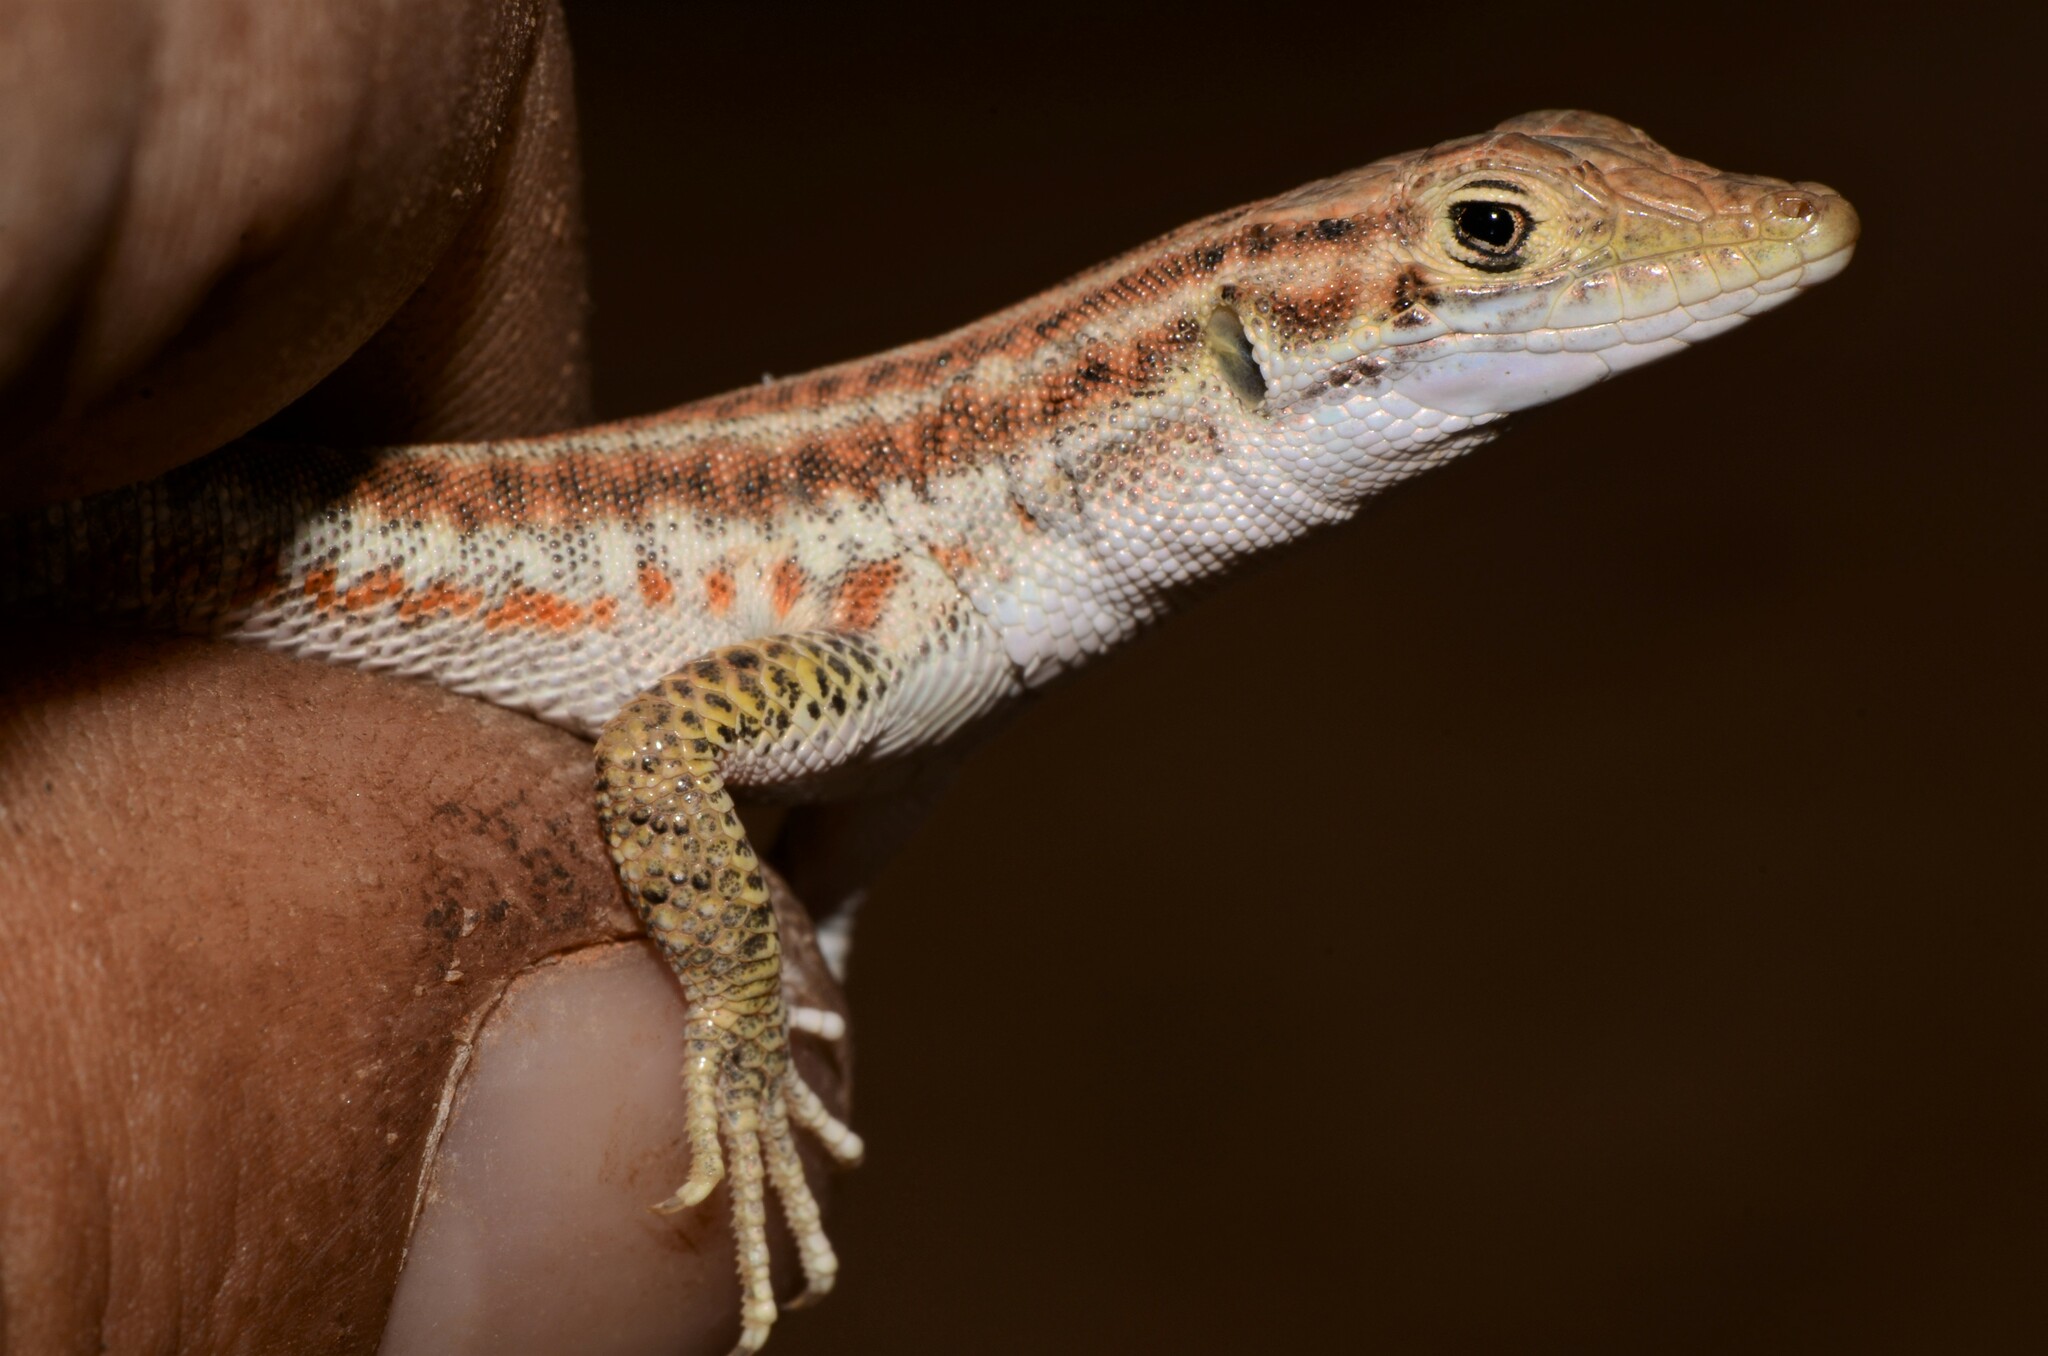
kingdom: Animalia
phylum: Chordata
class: Squamata
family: Lacertidae
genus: Pedioplanis
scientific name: Pedioplanis namaquensis
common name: Namaqua sand lizard
